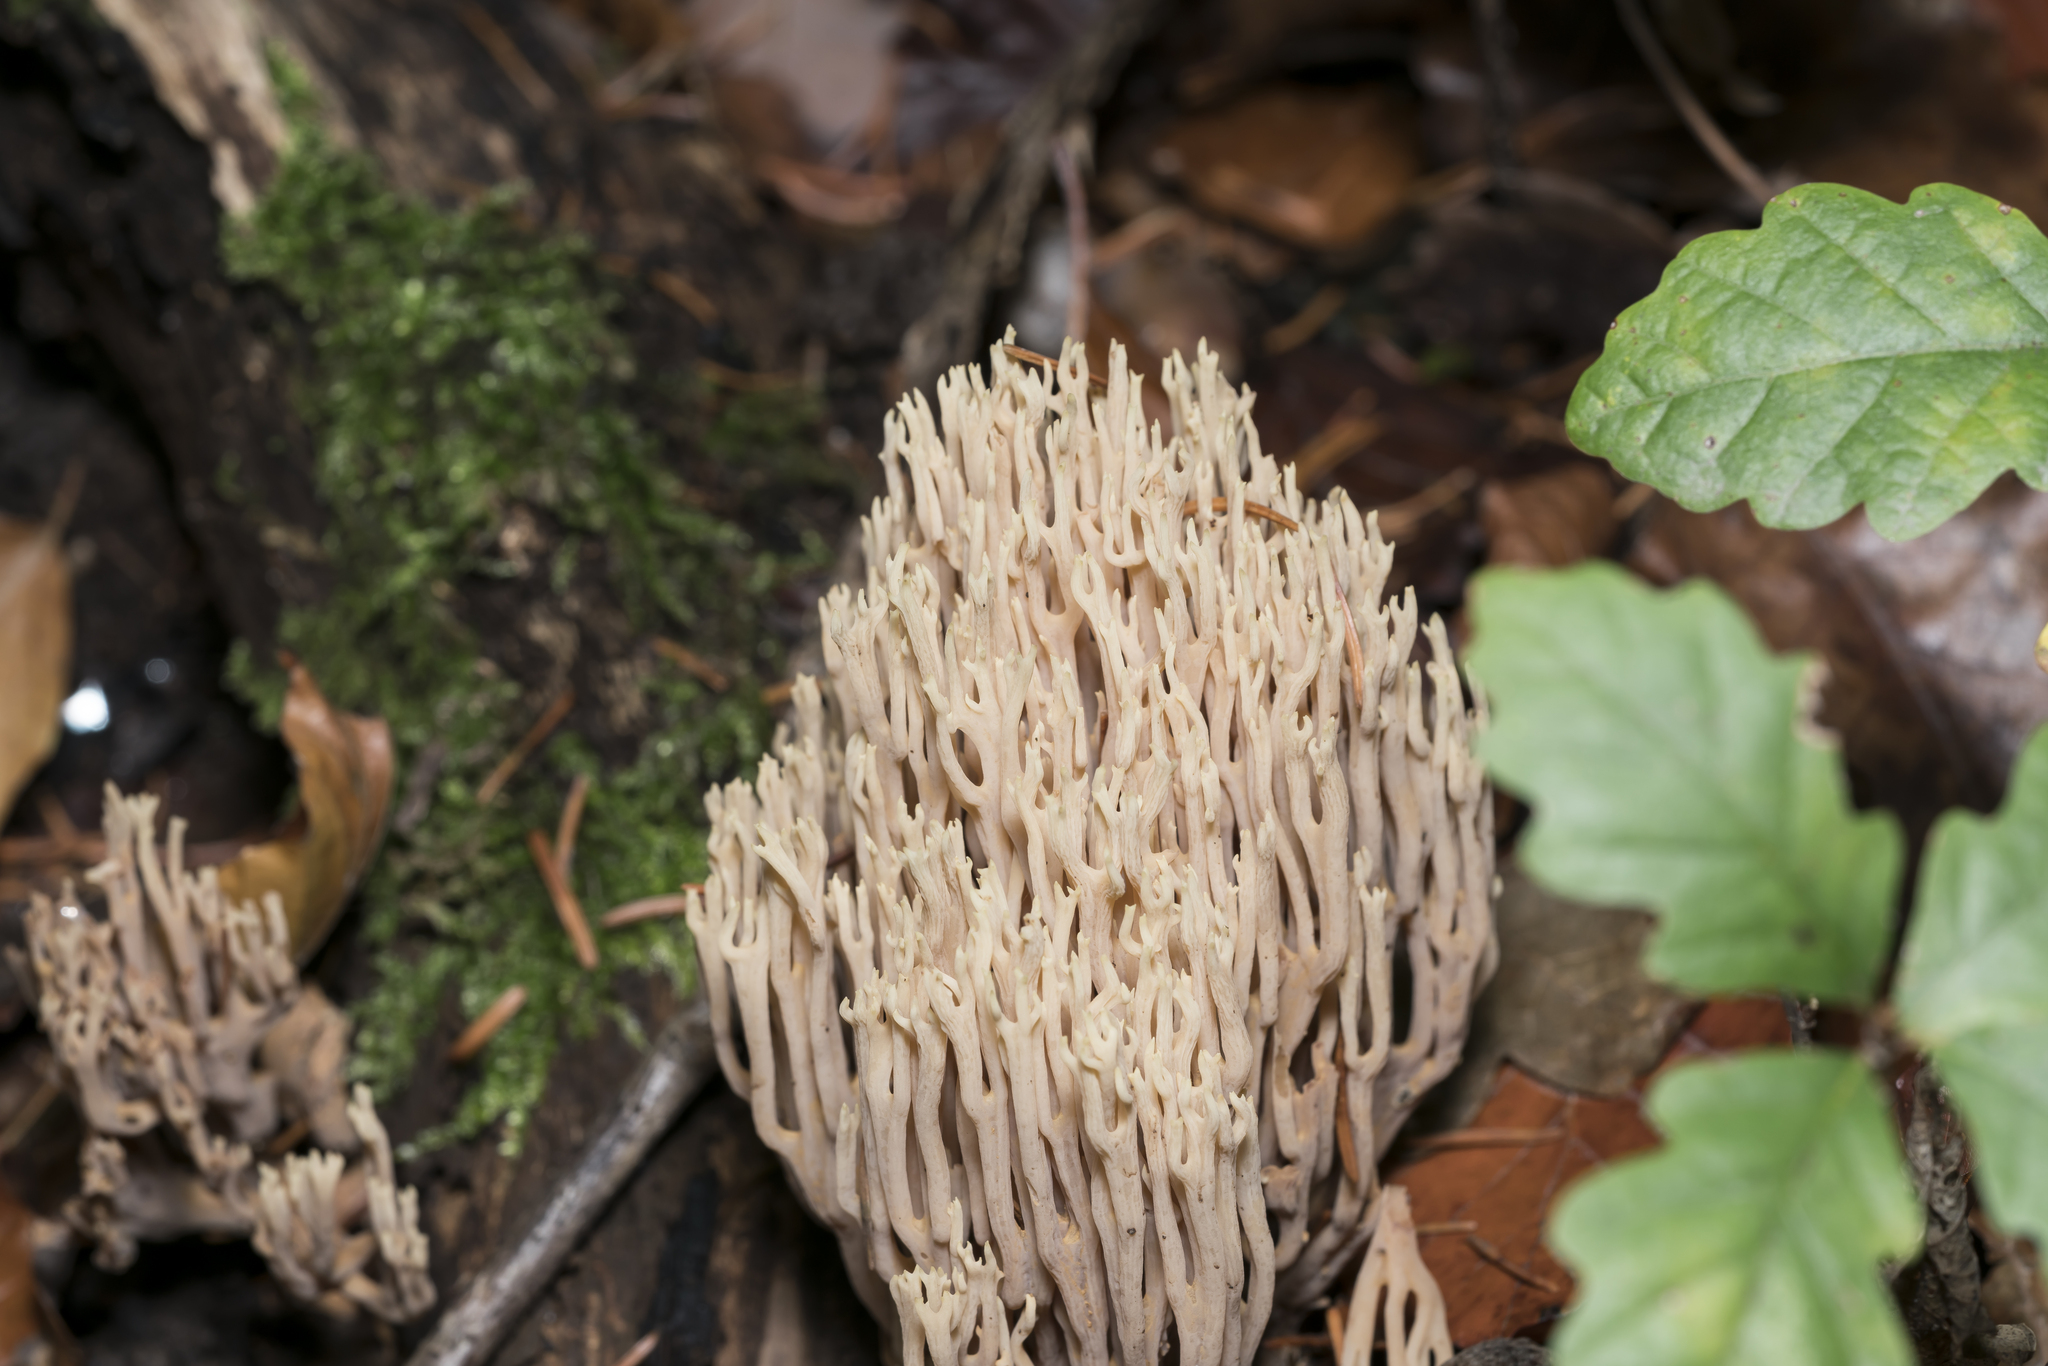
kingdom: Fungi
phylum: Basidiomycota
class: Agaricomycetes
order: Gomphales
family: Gomphaceae
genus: Ramaria
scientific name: Ramaria stricta
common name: Upright coral
